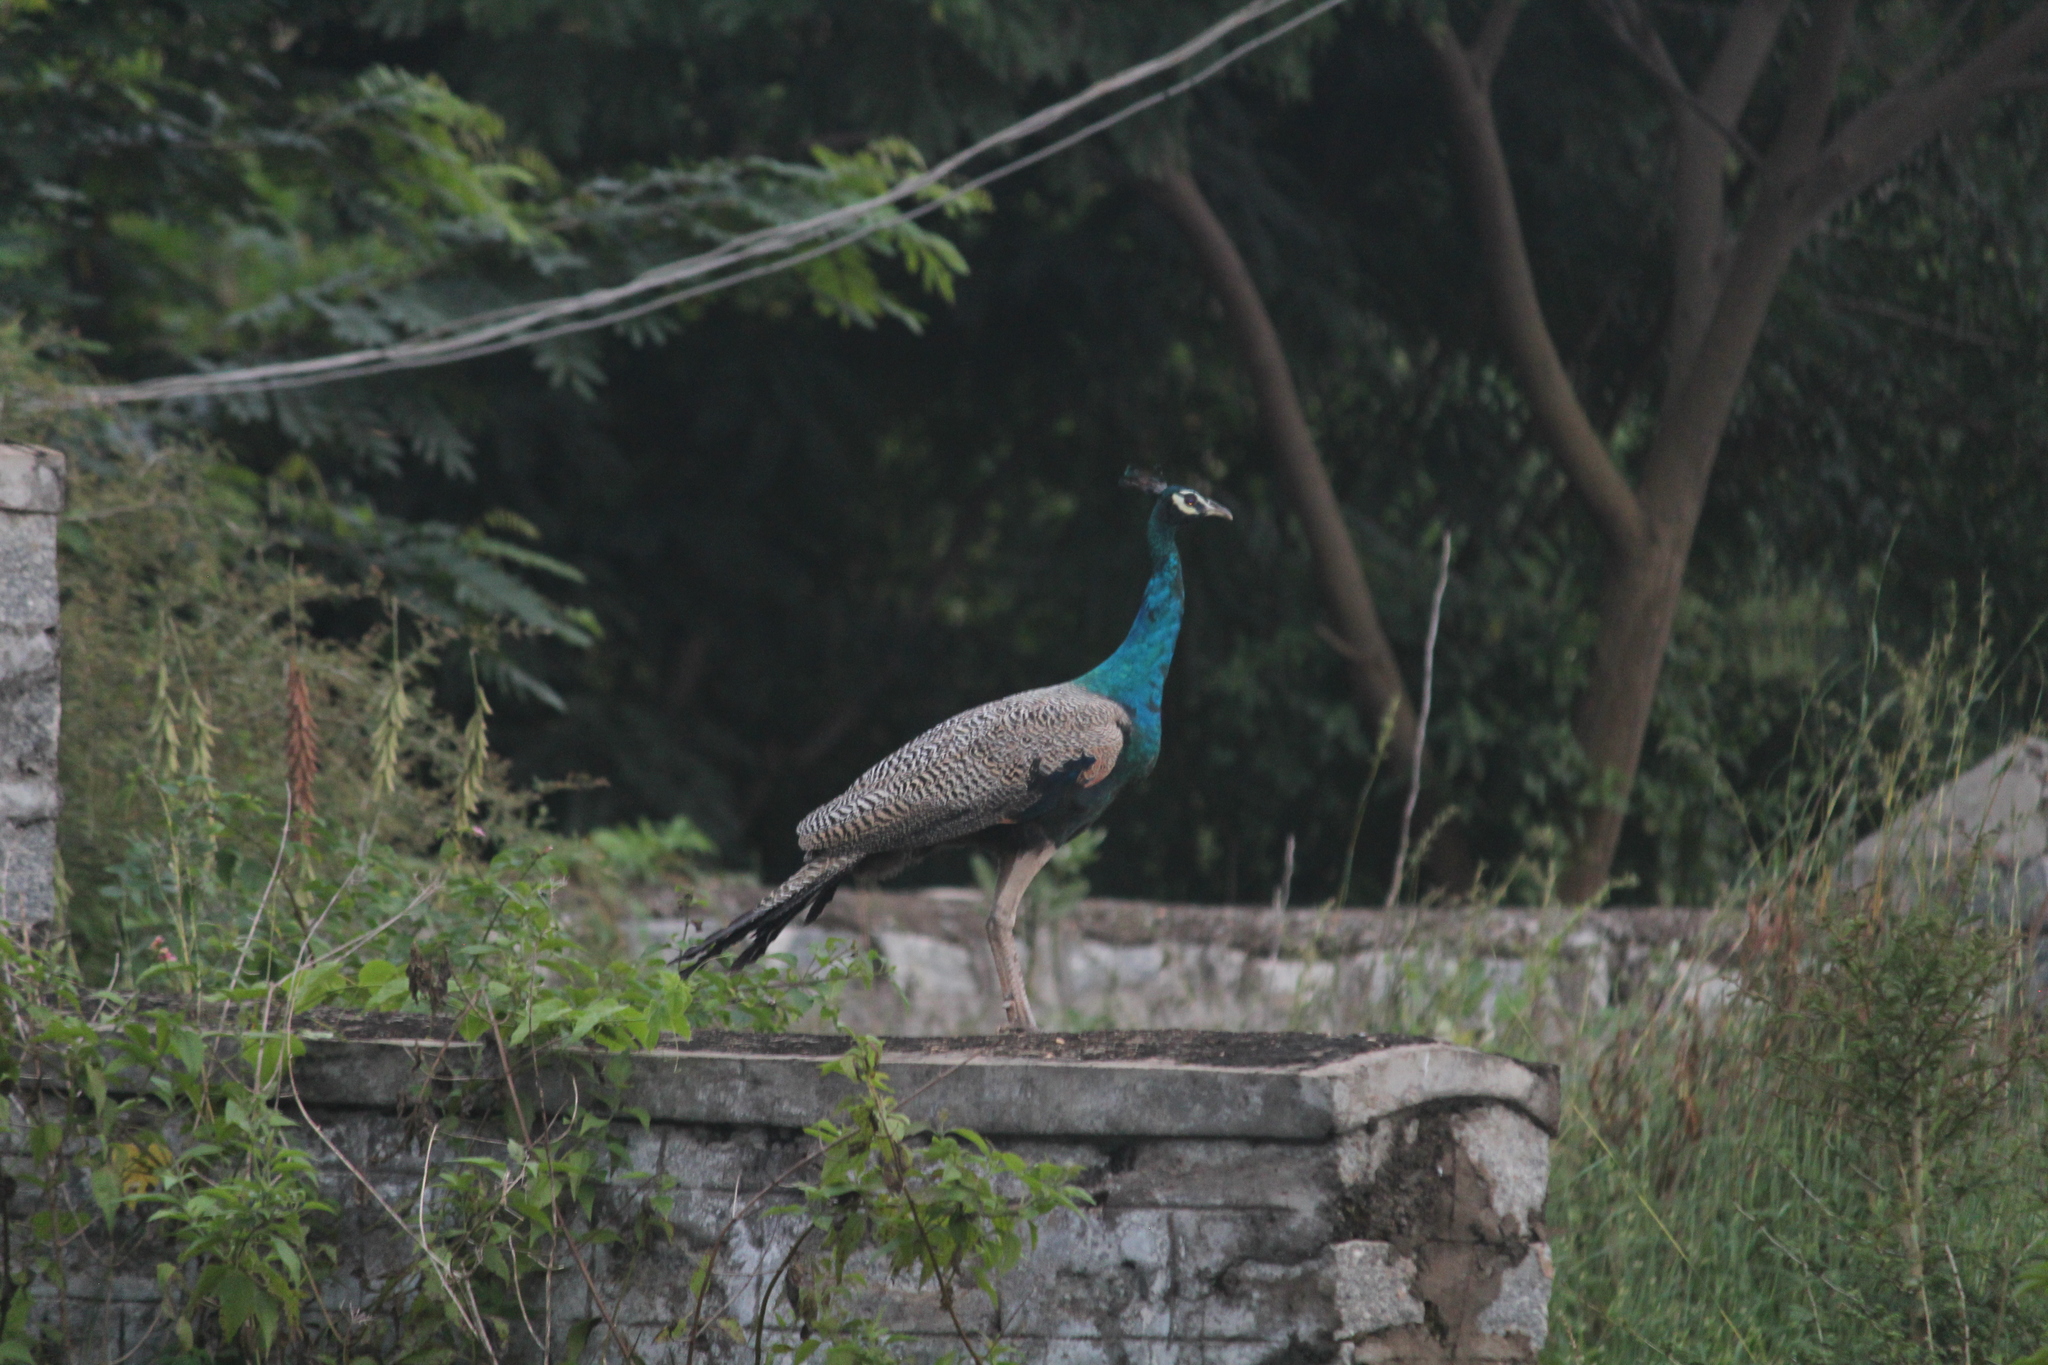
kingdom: Animalia
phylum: Chordata
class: Aves
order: Galliformes
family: Phasianidae
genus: Pavo
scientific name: Pavo cristatus
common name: Indian peafowl
